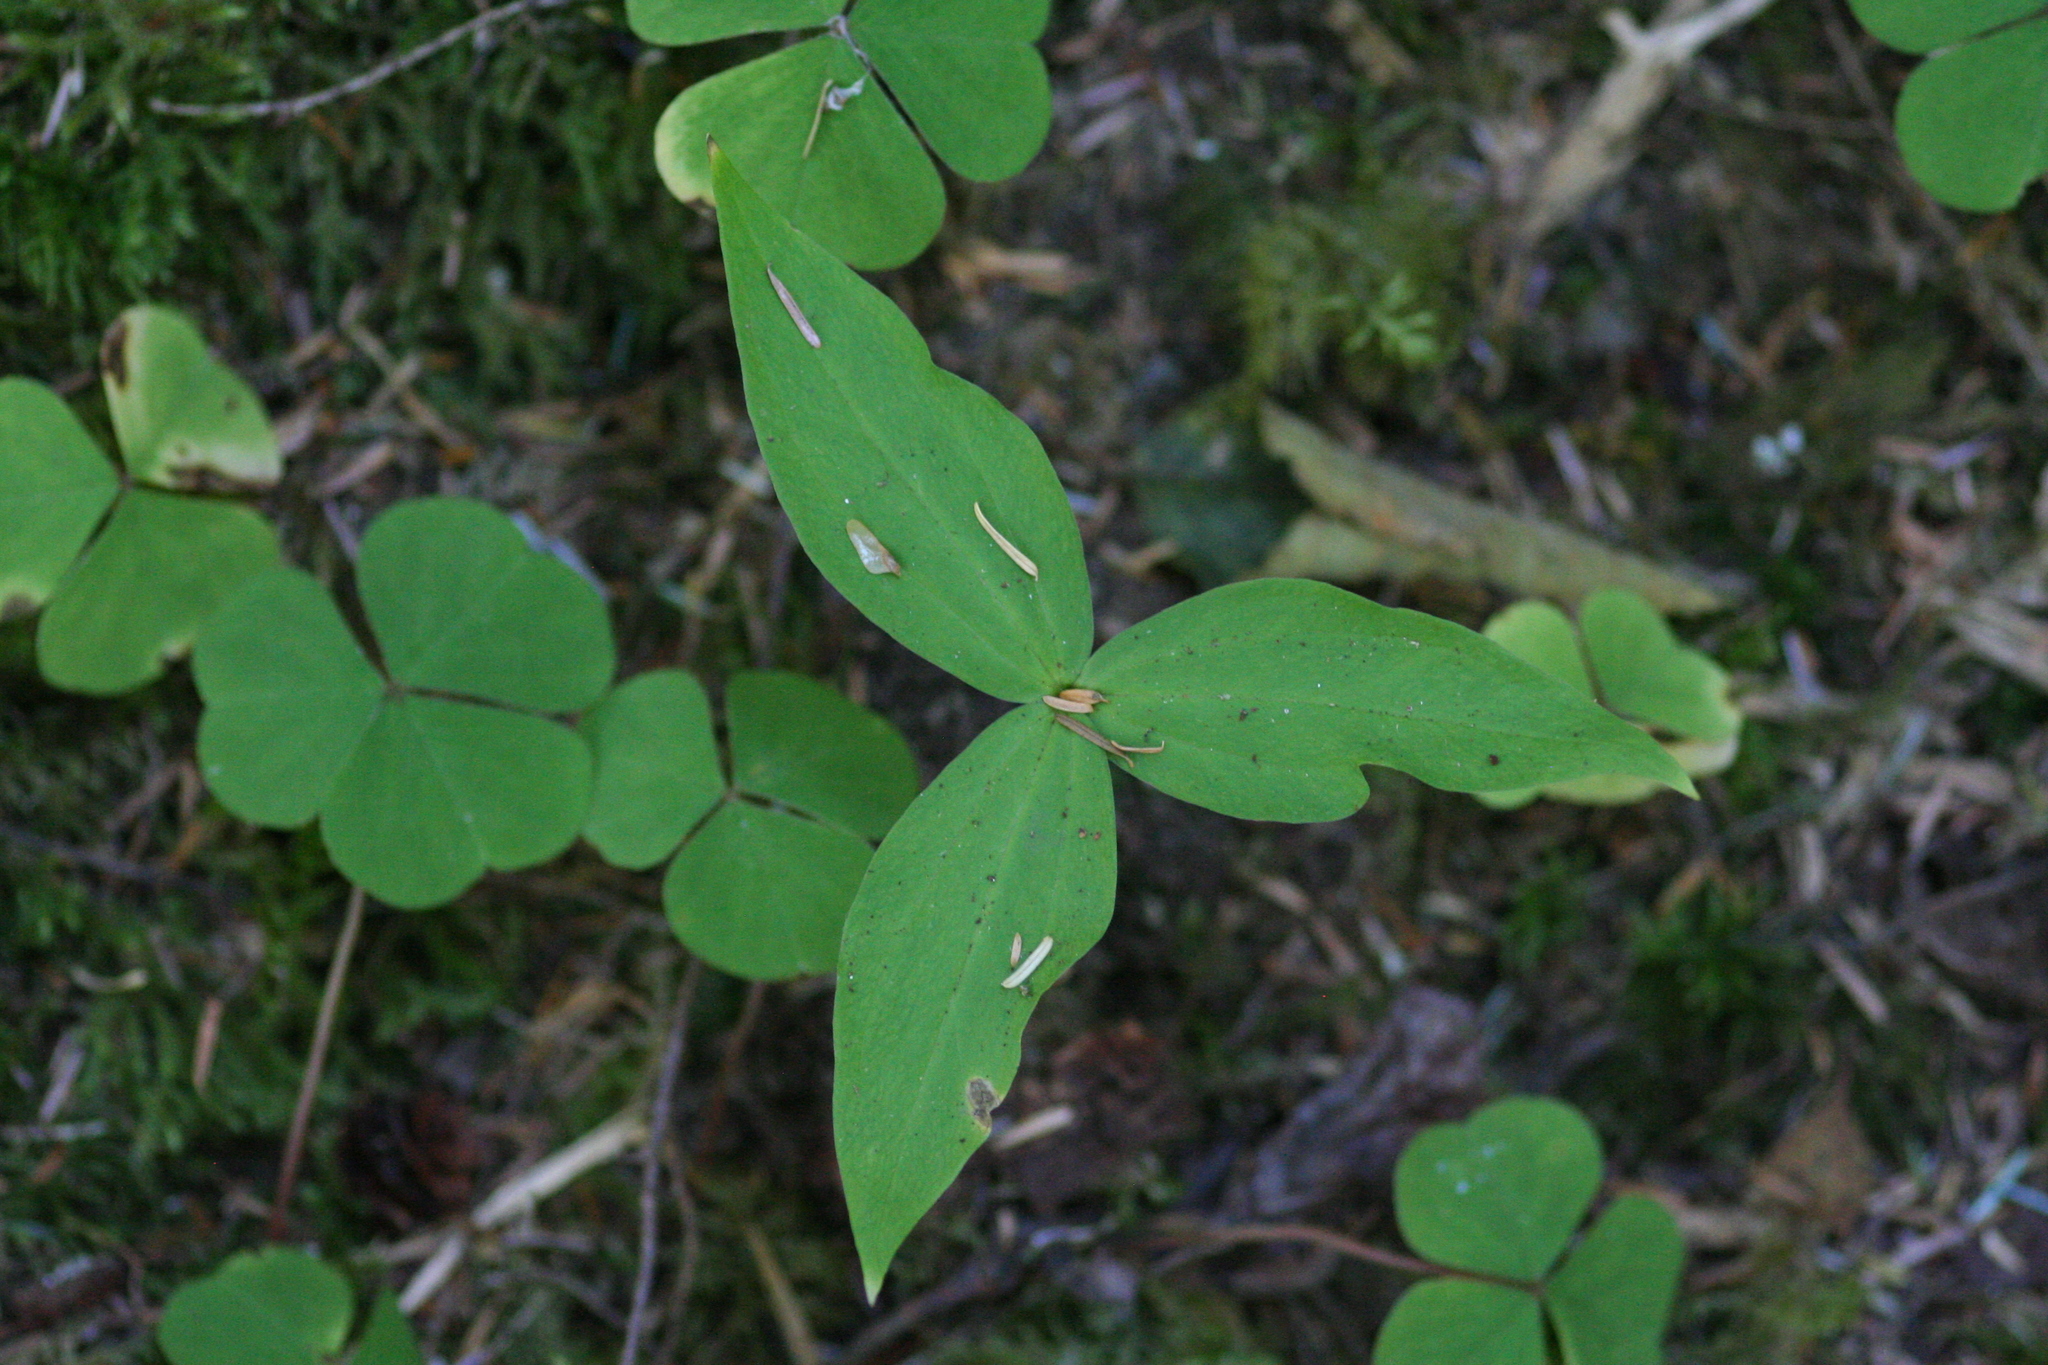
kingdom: Plantae
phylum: Tracheophyta
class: Liliopsida
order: Liliales
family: Melanthiaceae
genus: Trillium
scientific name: Trillium ovatum
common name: Pacific trillium
